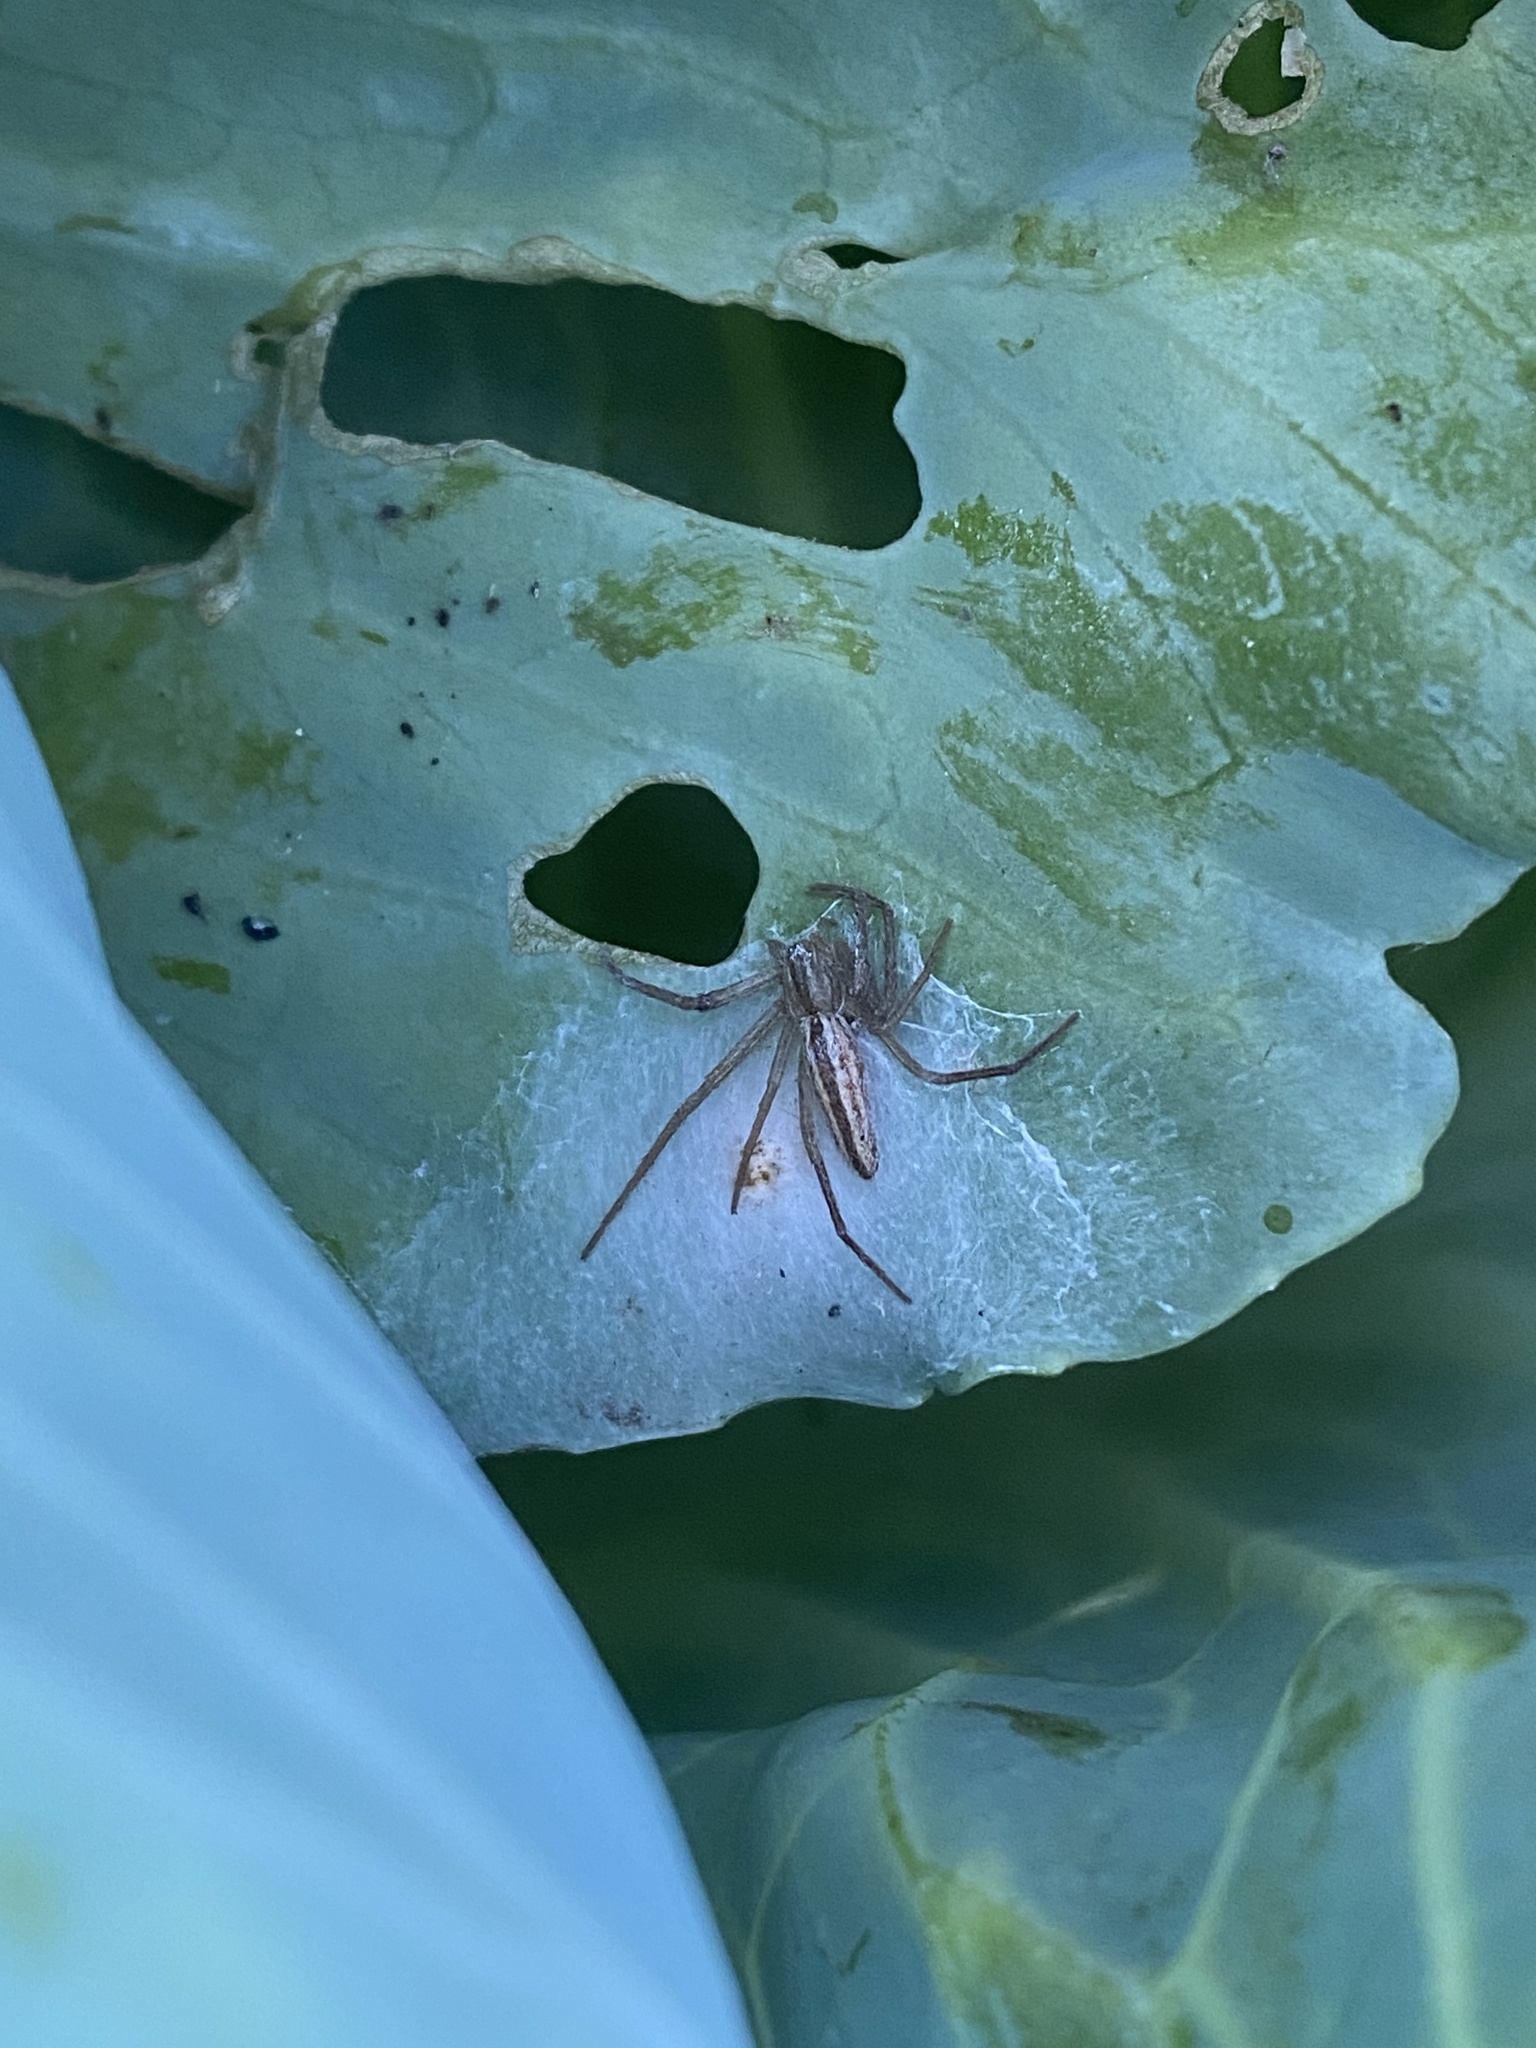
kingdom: Animalia
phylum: Arthropoda
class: Arachnida
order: Araneae
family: Philodromidae
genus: Tibellus
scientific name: Tibellus
